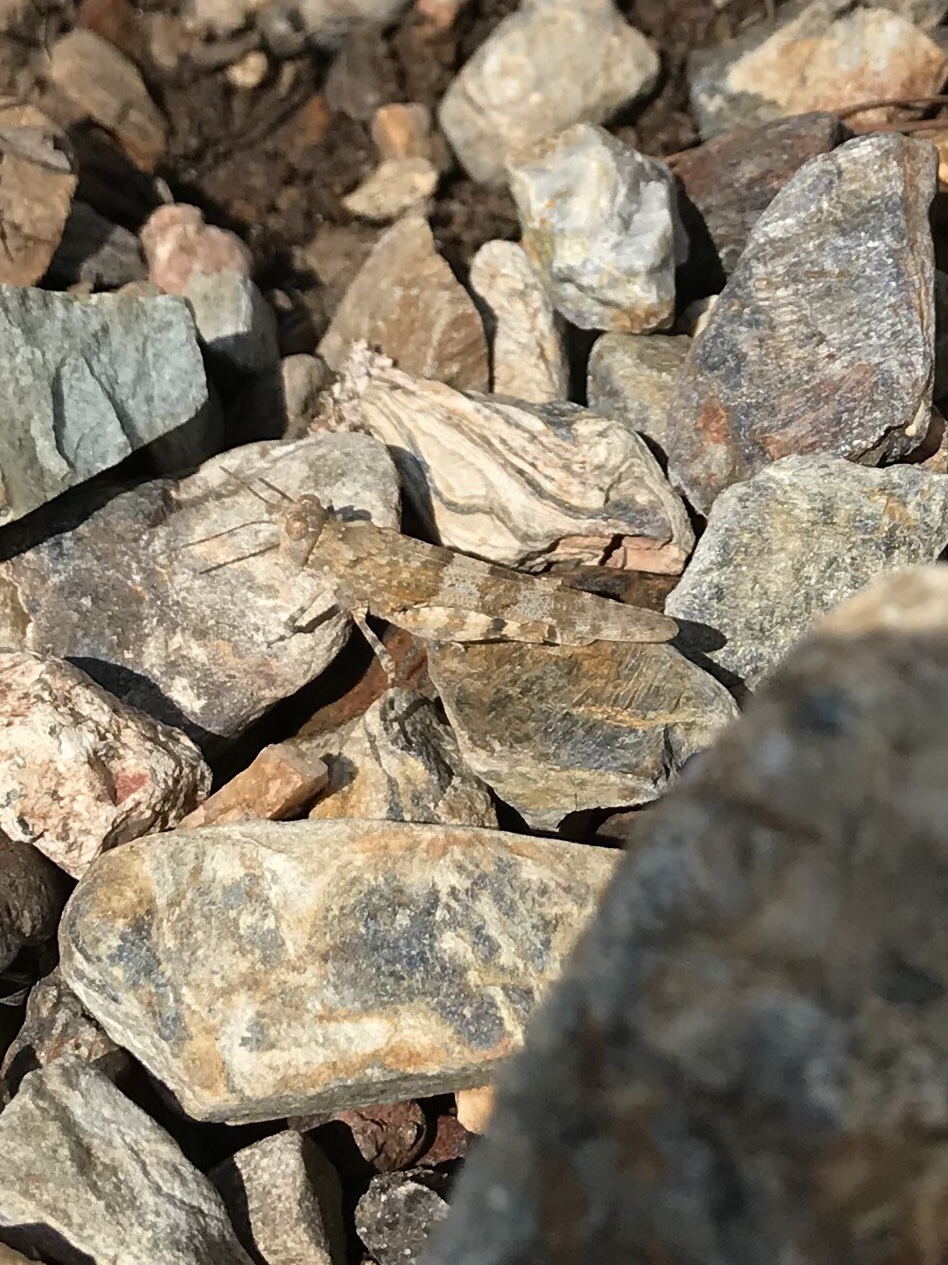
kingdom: Animalia
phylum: Arthropoda
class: Insecta
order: Orthoptera
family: Acrididae
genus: Sphingonotus
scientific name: Sphingonotus corsicus
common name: Corsican sand grasshopper
